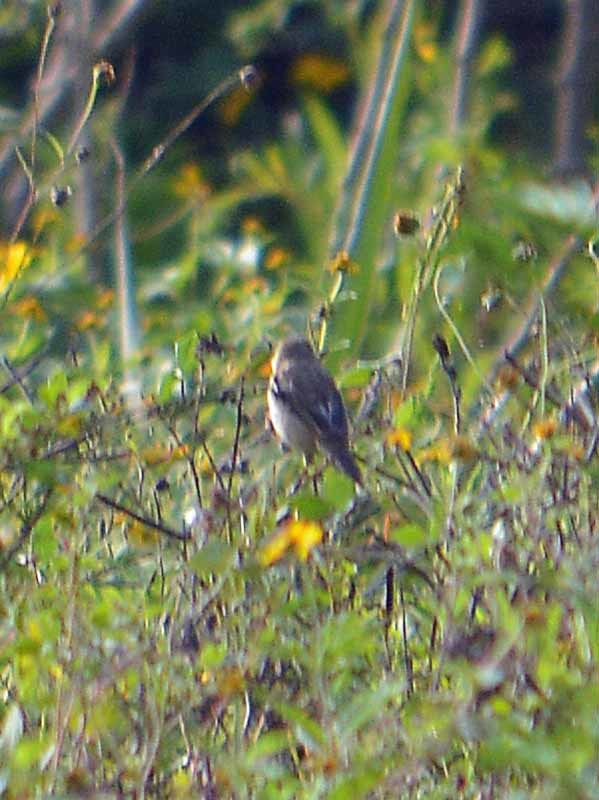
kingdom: Animalia
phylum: Chordata
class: Aves
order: Passeriformes
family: Thraupidae
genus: Sporophila
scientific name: Sporophila morelleti
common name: Morelet's seedeater
